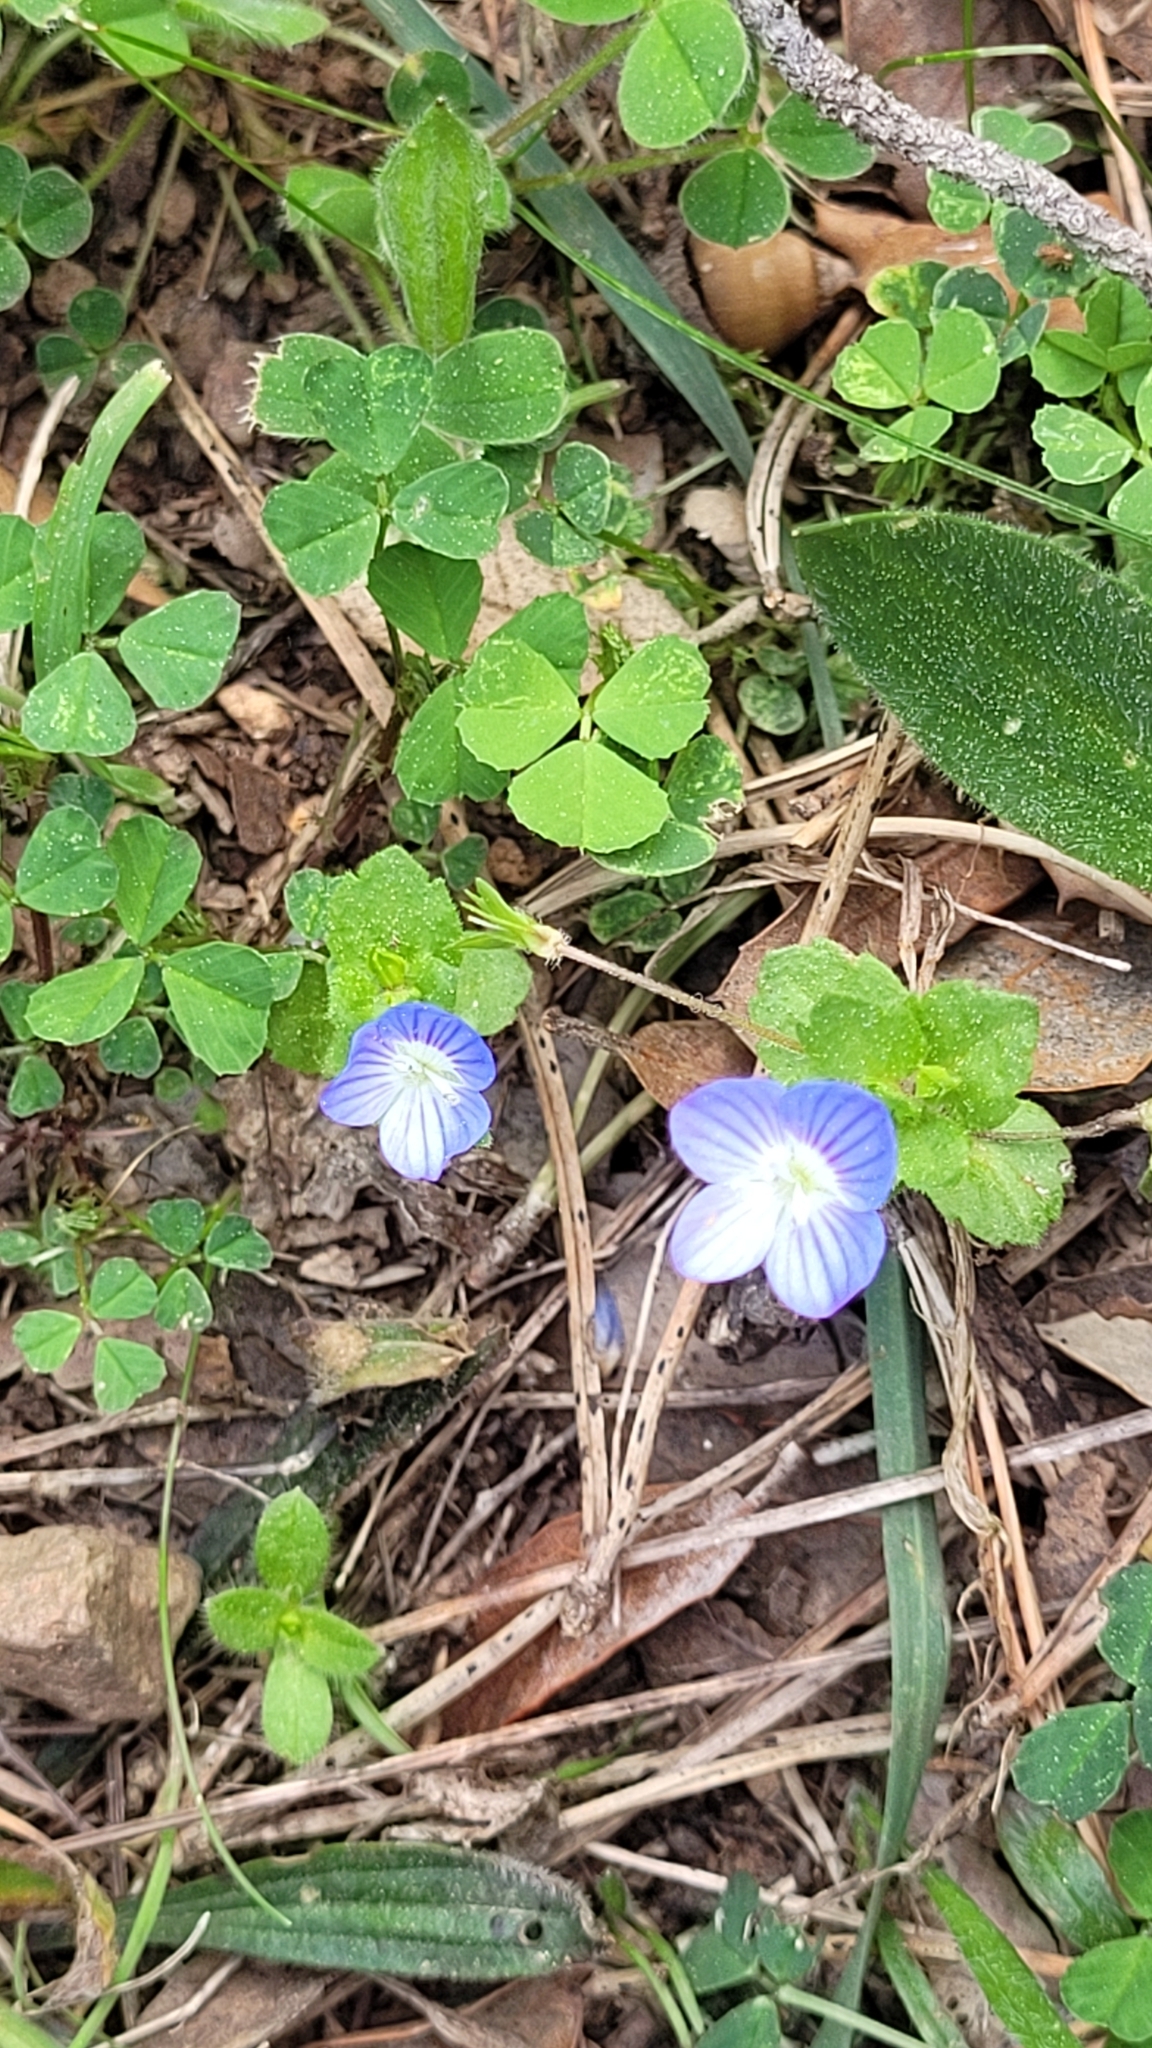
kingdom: Plantae
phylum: Tracheophyta
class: Magnoliopsida
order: Lamiales
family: Plantaginaceae
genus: Veronica
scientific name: Veronica persica
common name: Common field-speedwell
